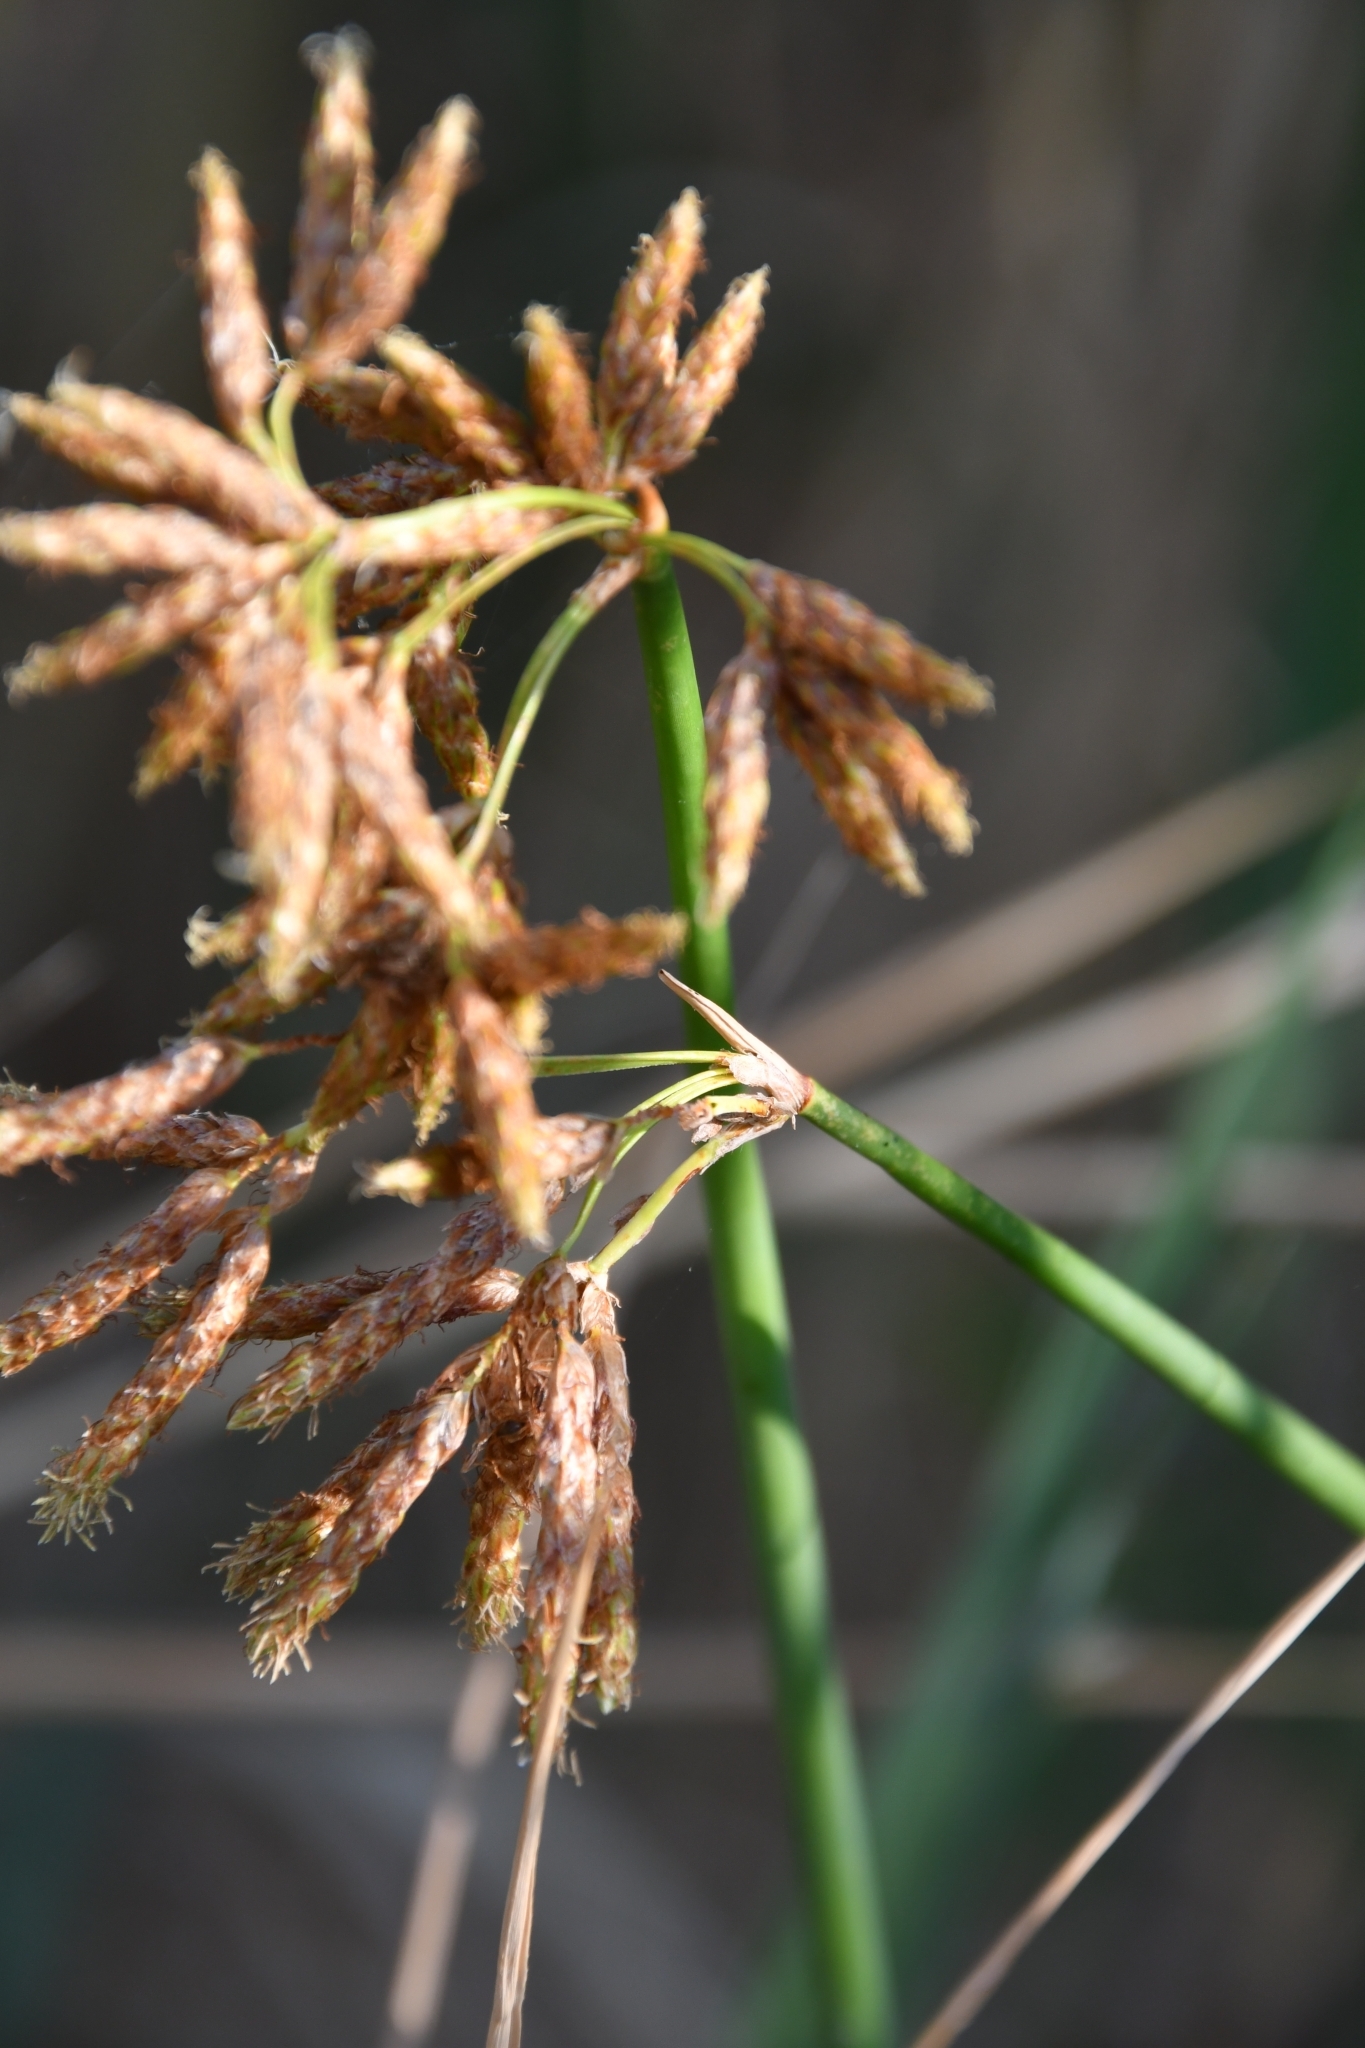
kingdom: Plantae
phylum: Tracheophyta
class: Liliopsida
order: Poales
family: Cyperaceae
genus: Schoenoplectus
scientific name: Schoenoplectus tabernaemontani
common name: Grey club-rush
